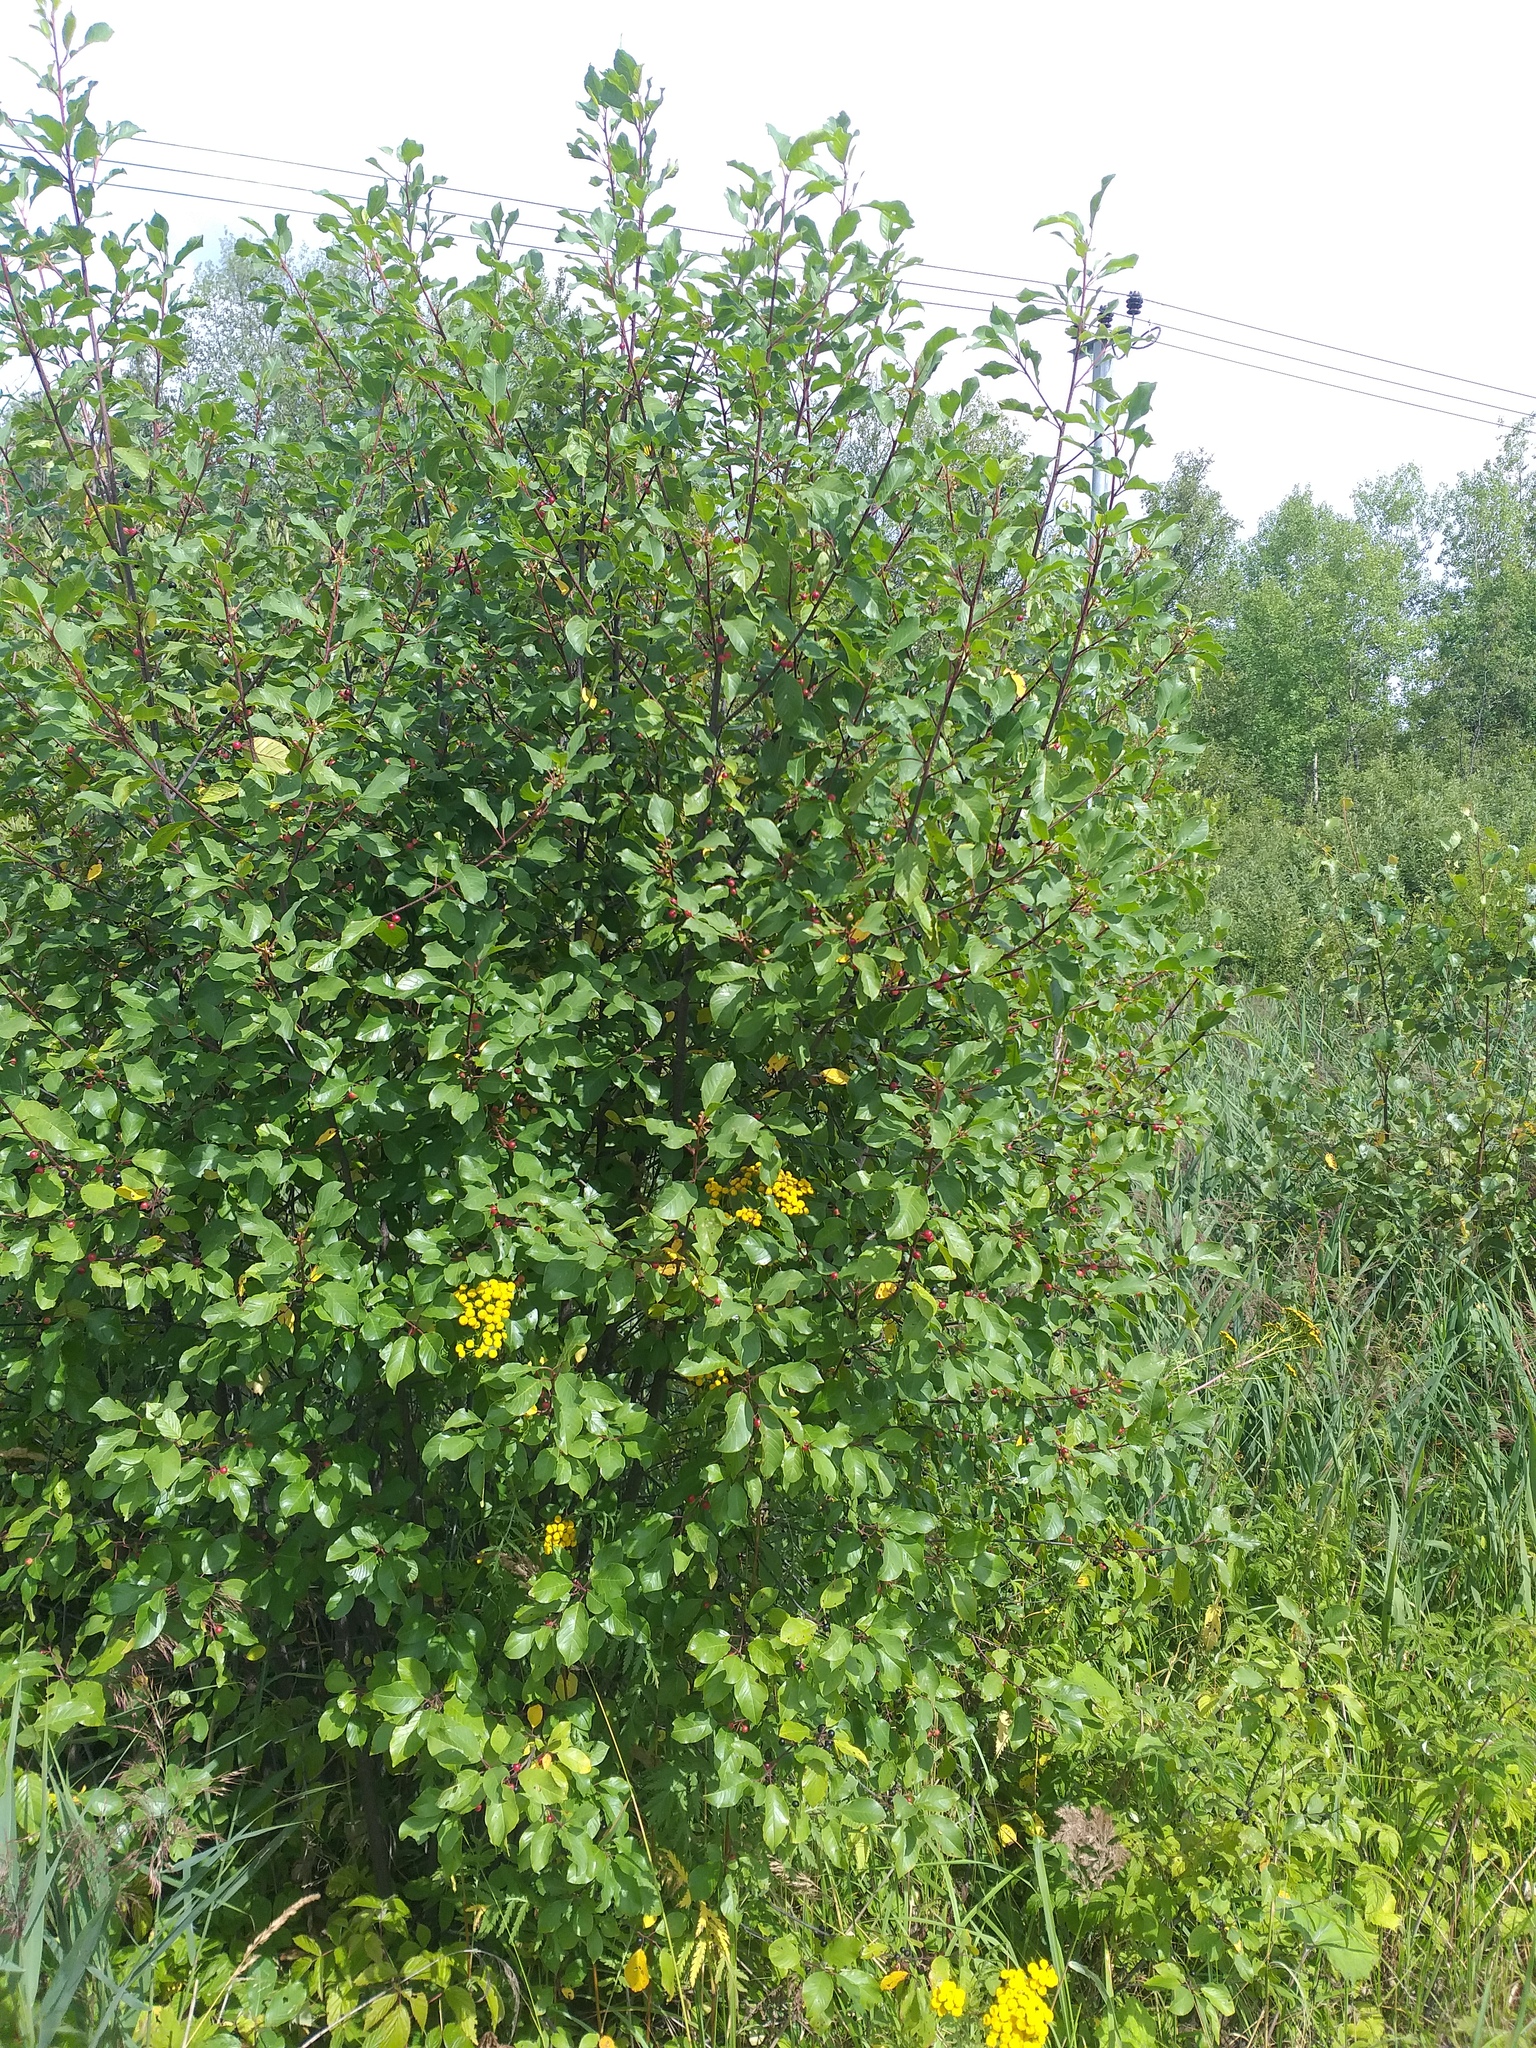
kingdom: Plantae
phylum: Tracheophyta
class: Magnoliopsida
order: Rosales
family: Rhamnaceae
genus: Frangula
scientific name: Frangula alnus
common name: Alder buckthorn
